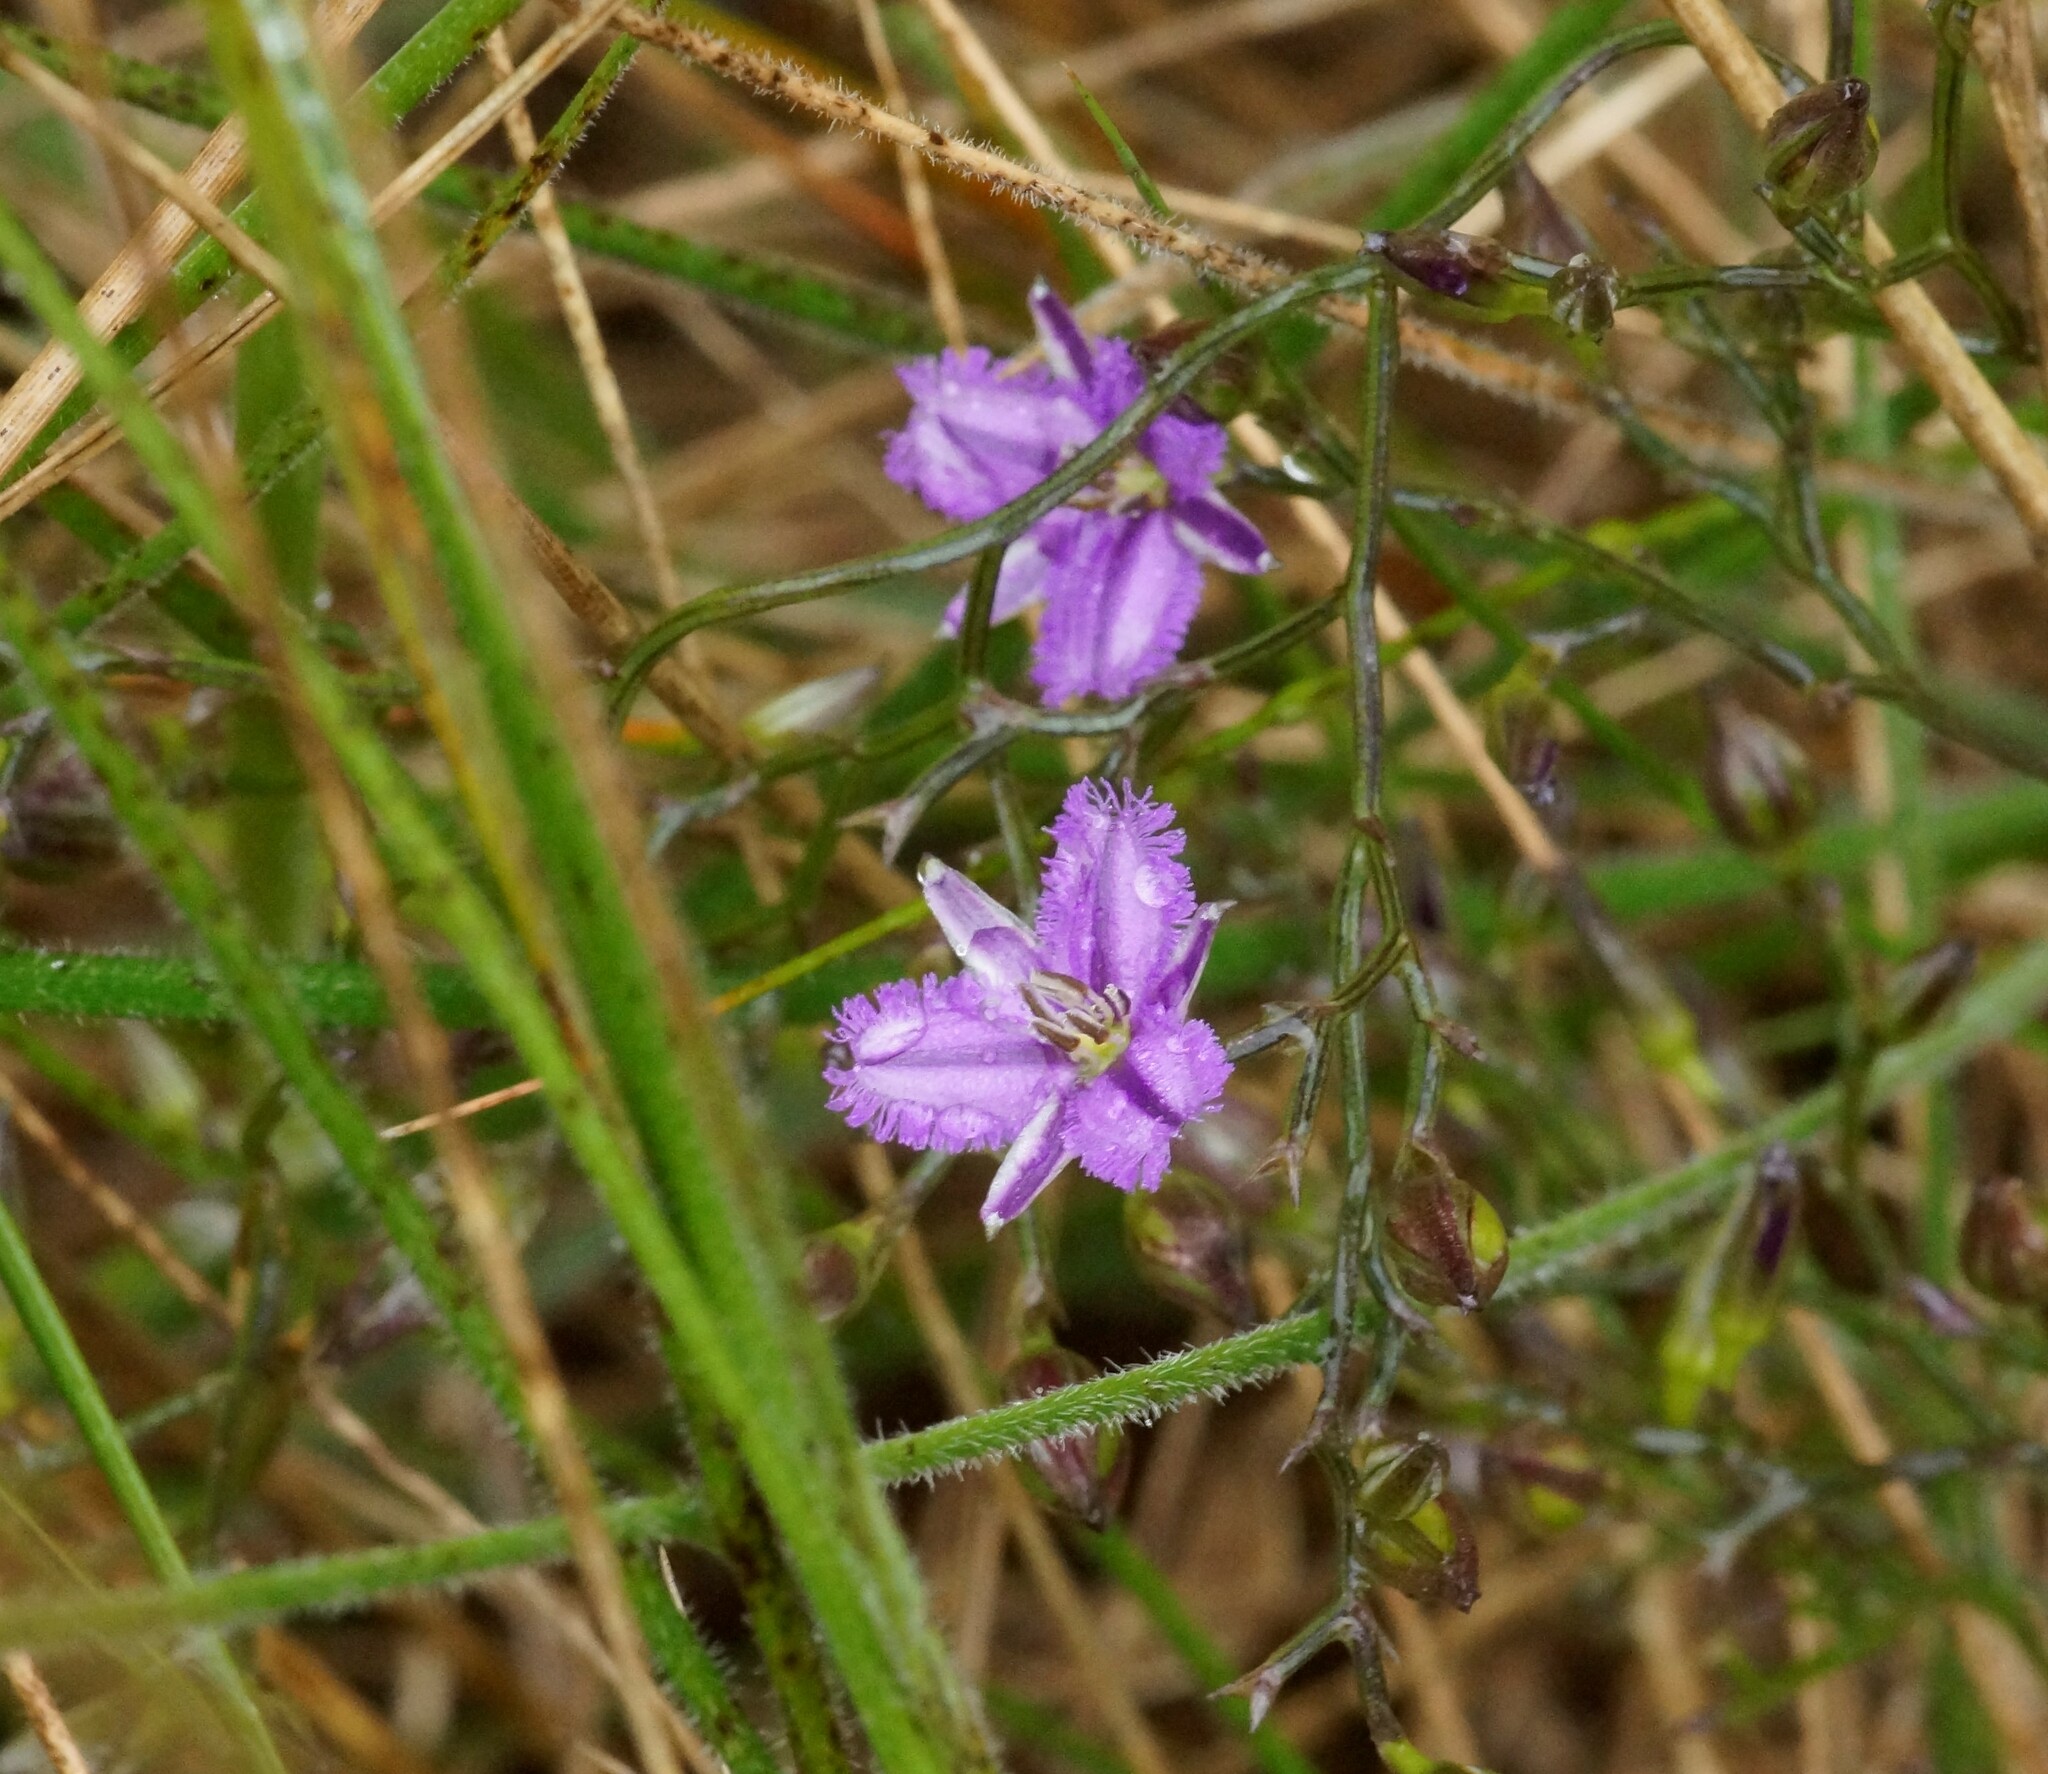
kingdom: Plantae
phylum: Tracheophyta
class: Liliopsida
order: Asparagales
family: Asparagaceae
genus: Thysanotus
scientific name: Thysanotus patersonii
